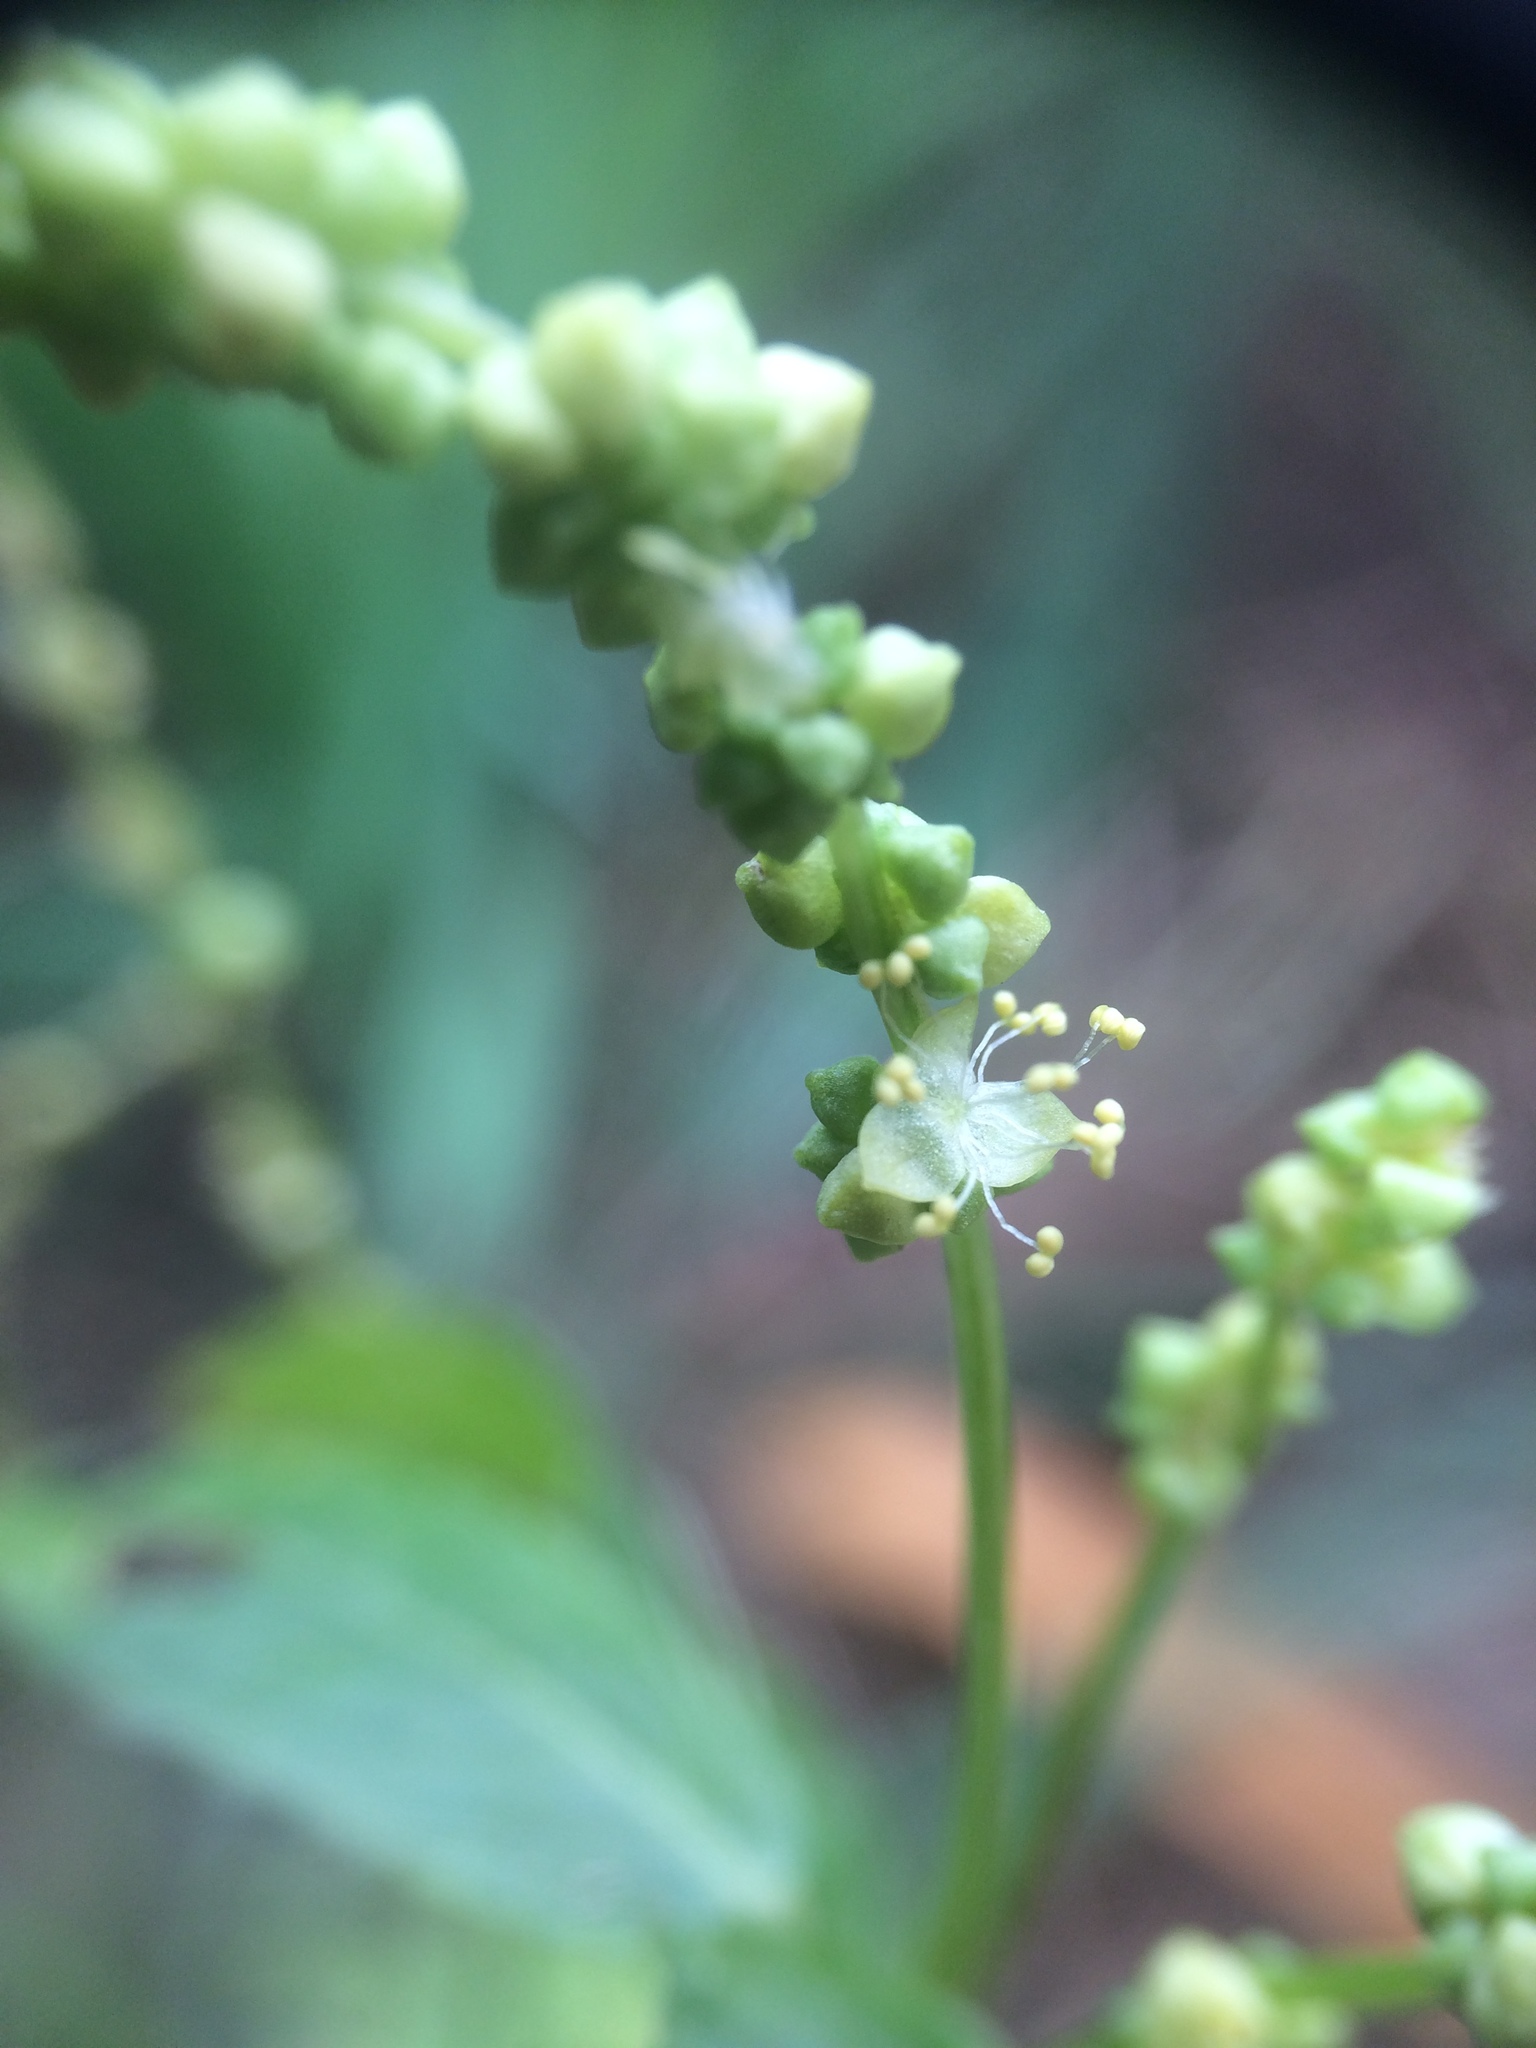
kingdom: Plantae
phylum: Tracheophyta
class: Magnoliopsida
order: Malpighiales
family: Euphorbiaceae
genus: Mercurialis
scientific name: Mercurialis annua
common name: Annual mercury
